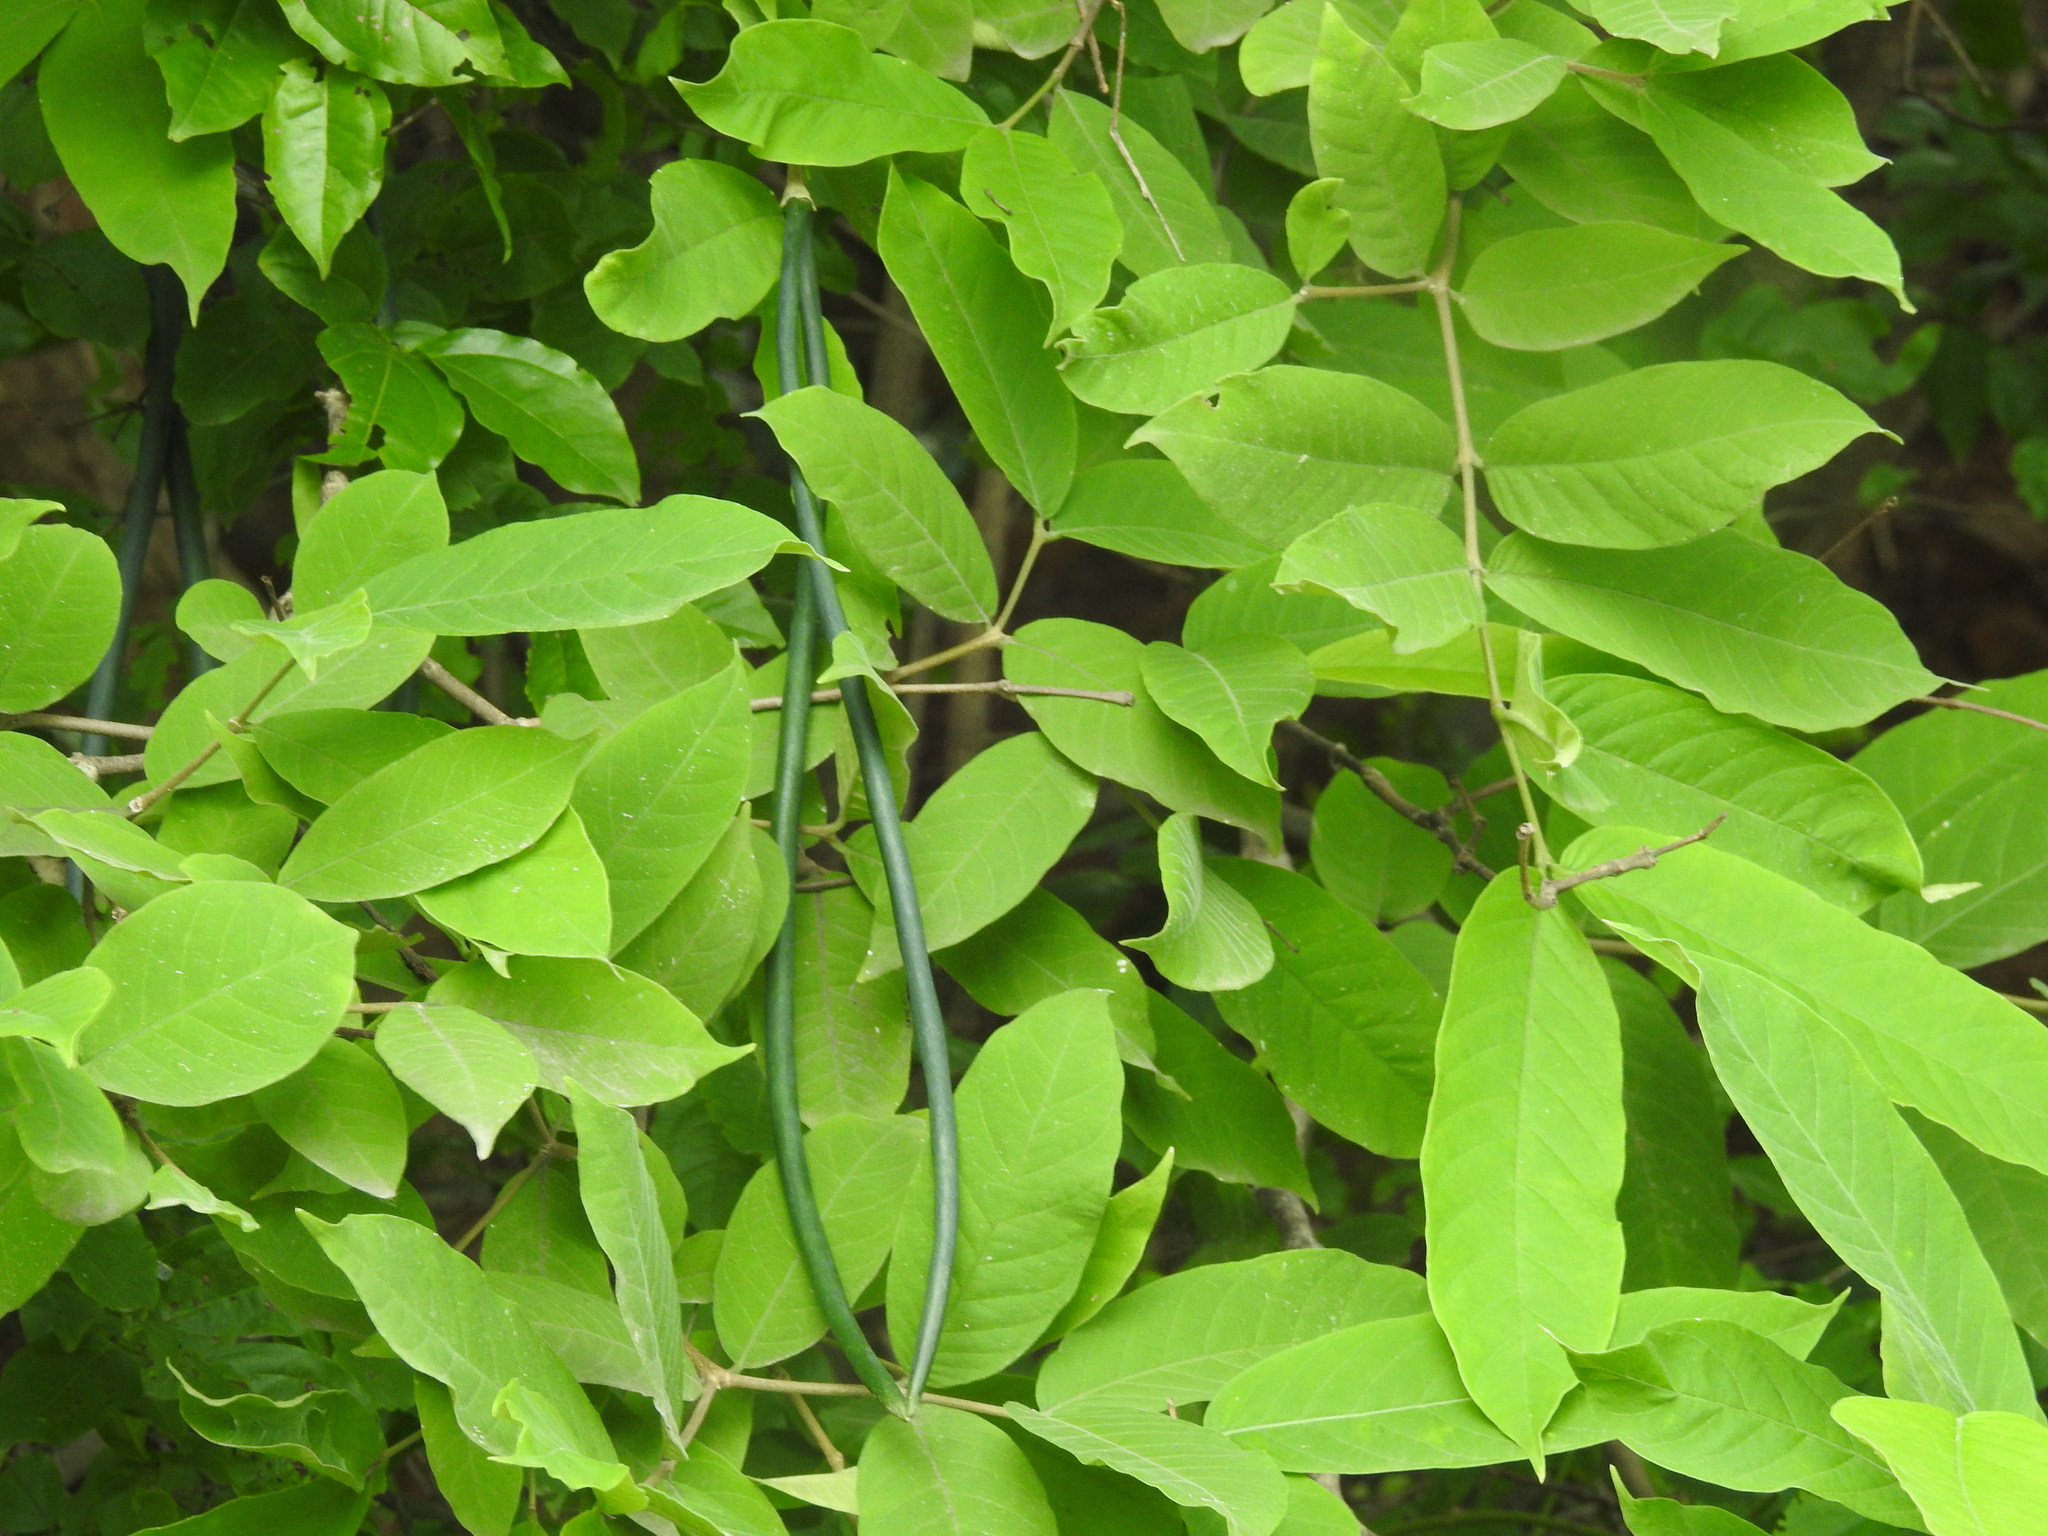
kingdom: Plantae
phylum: Tracheophyta
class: Magnoliopsida
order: Gentianales
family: Apocynaceae
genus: Wrightia
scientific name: Wrightia tinctoria
